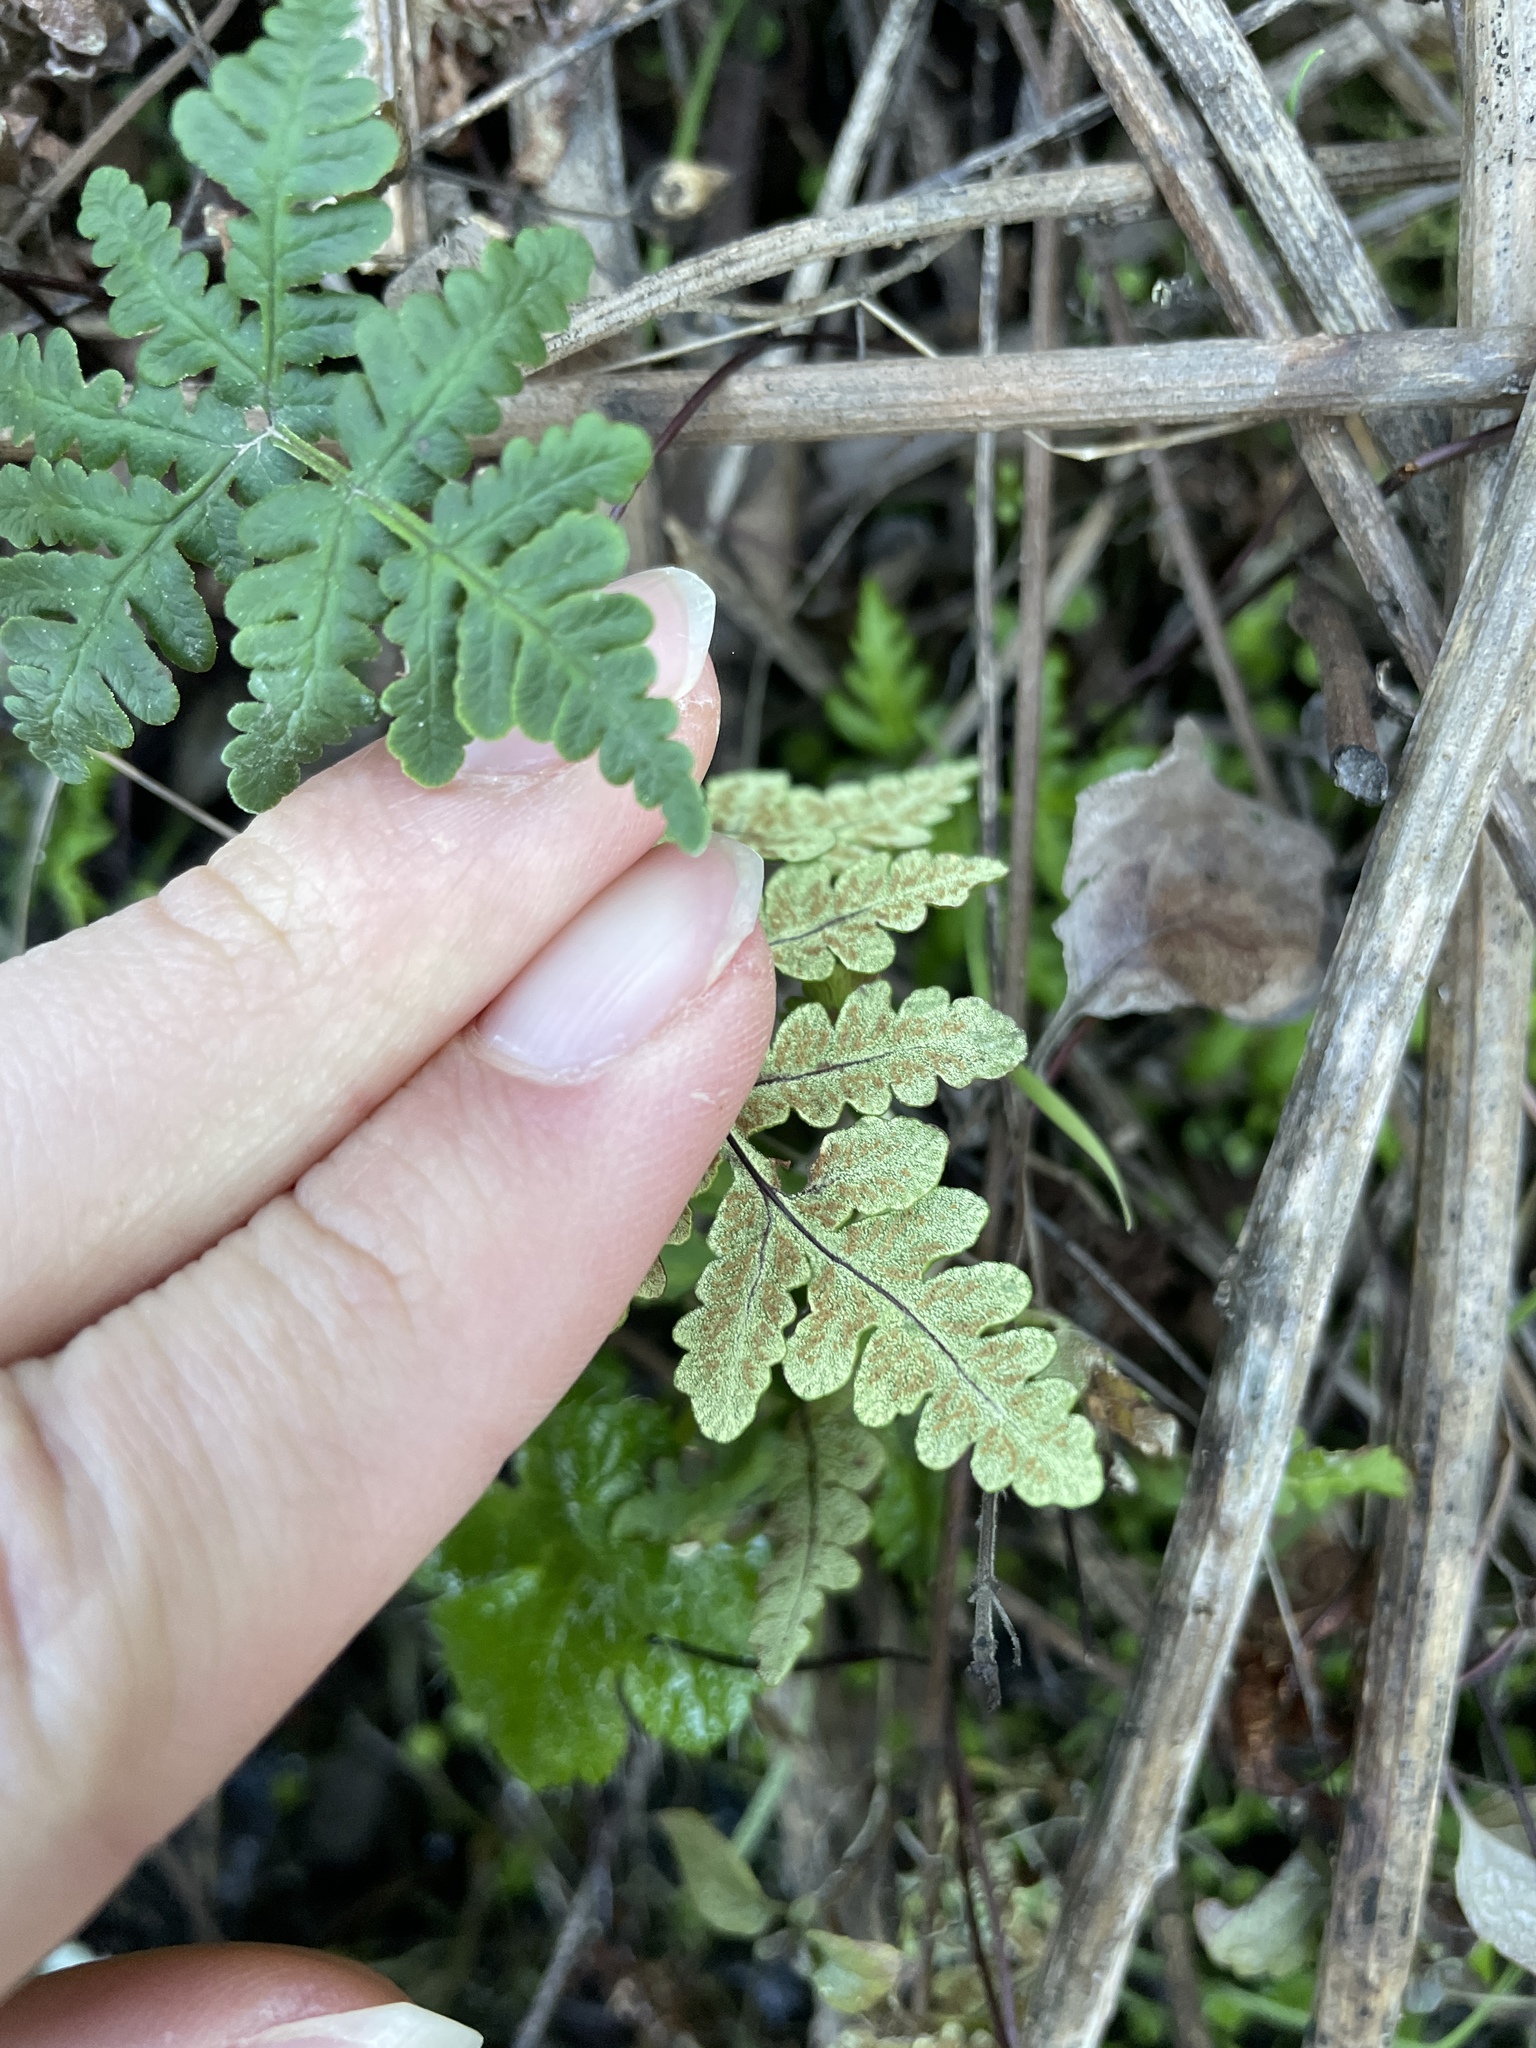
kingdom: Plantae
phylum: Tracheophyta
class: Polypodiopsida
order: Polypodiales
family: Pteridaceae
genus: Pentagramma
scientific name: Pentagramma triangularis
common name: Gold fern
